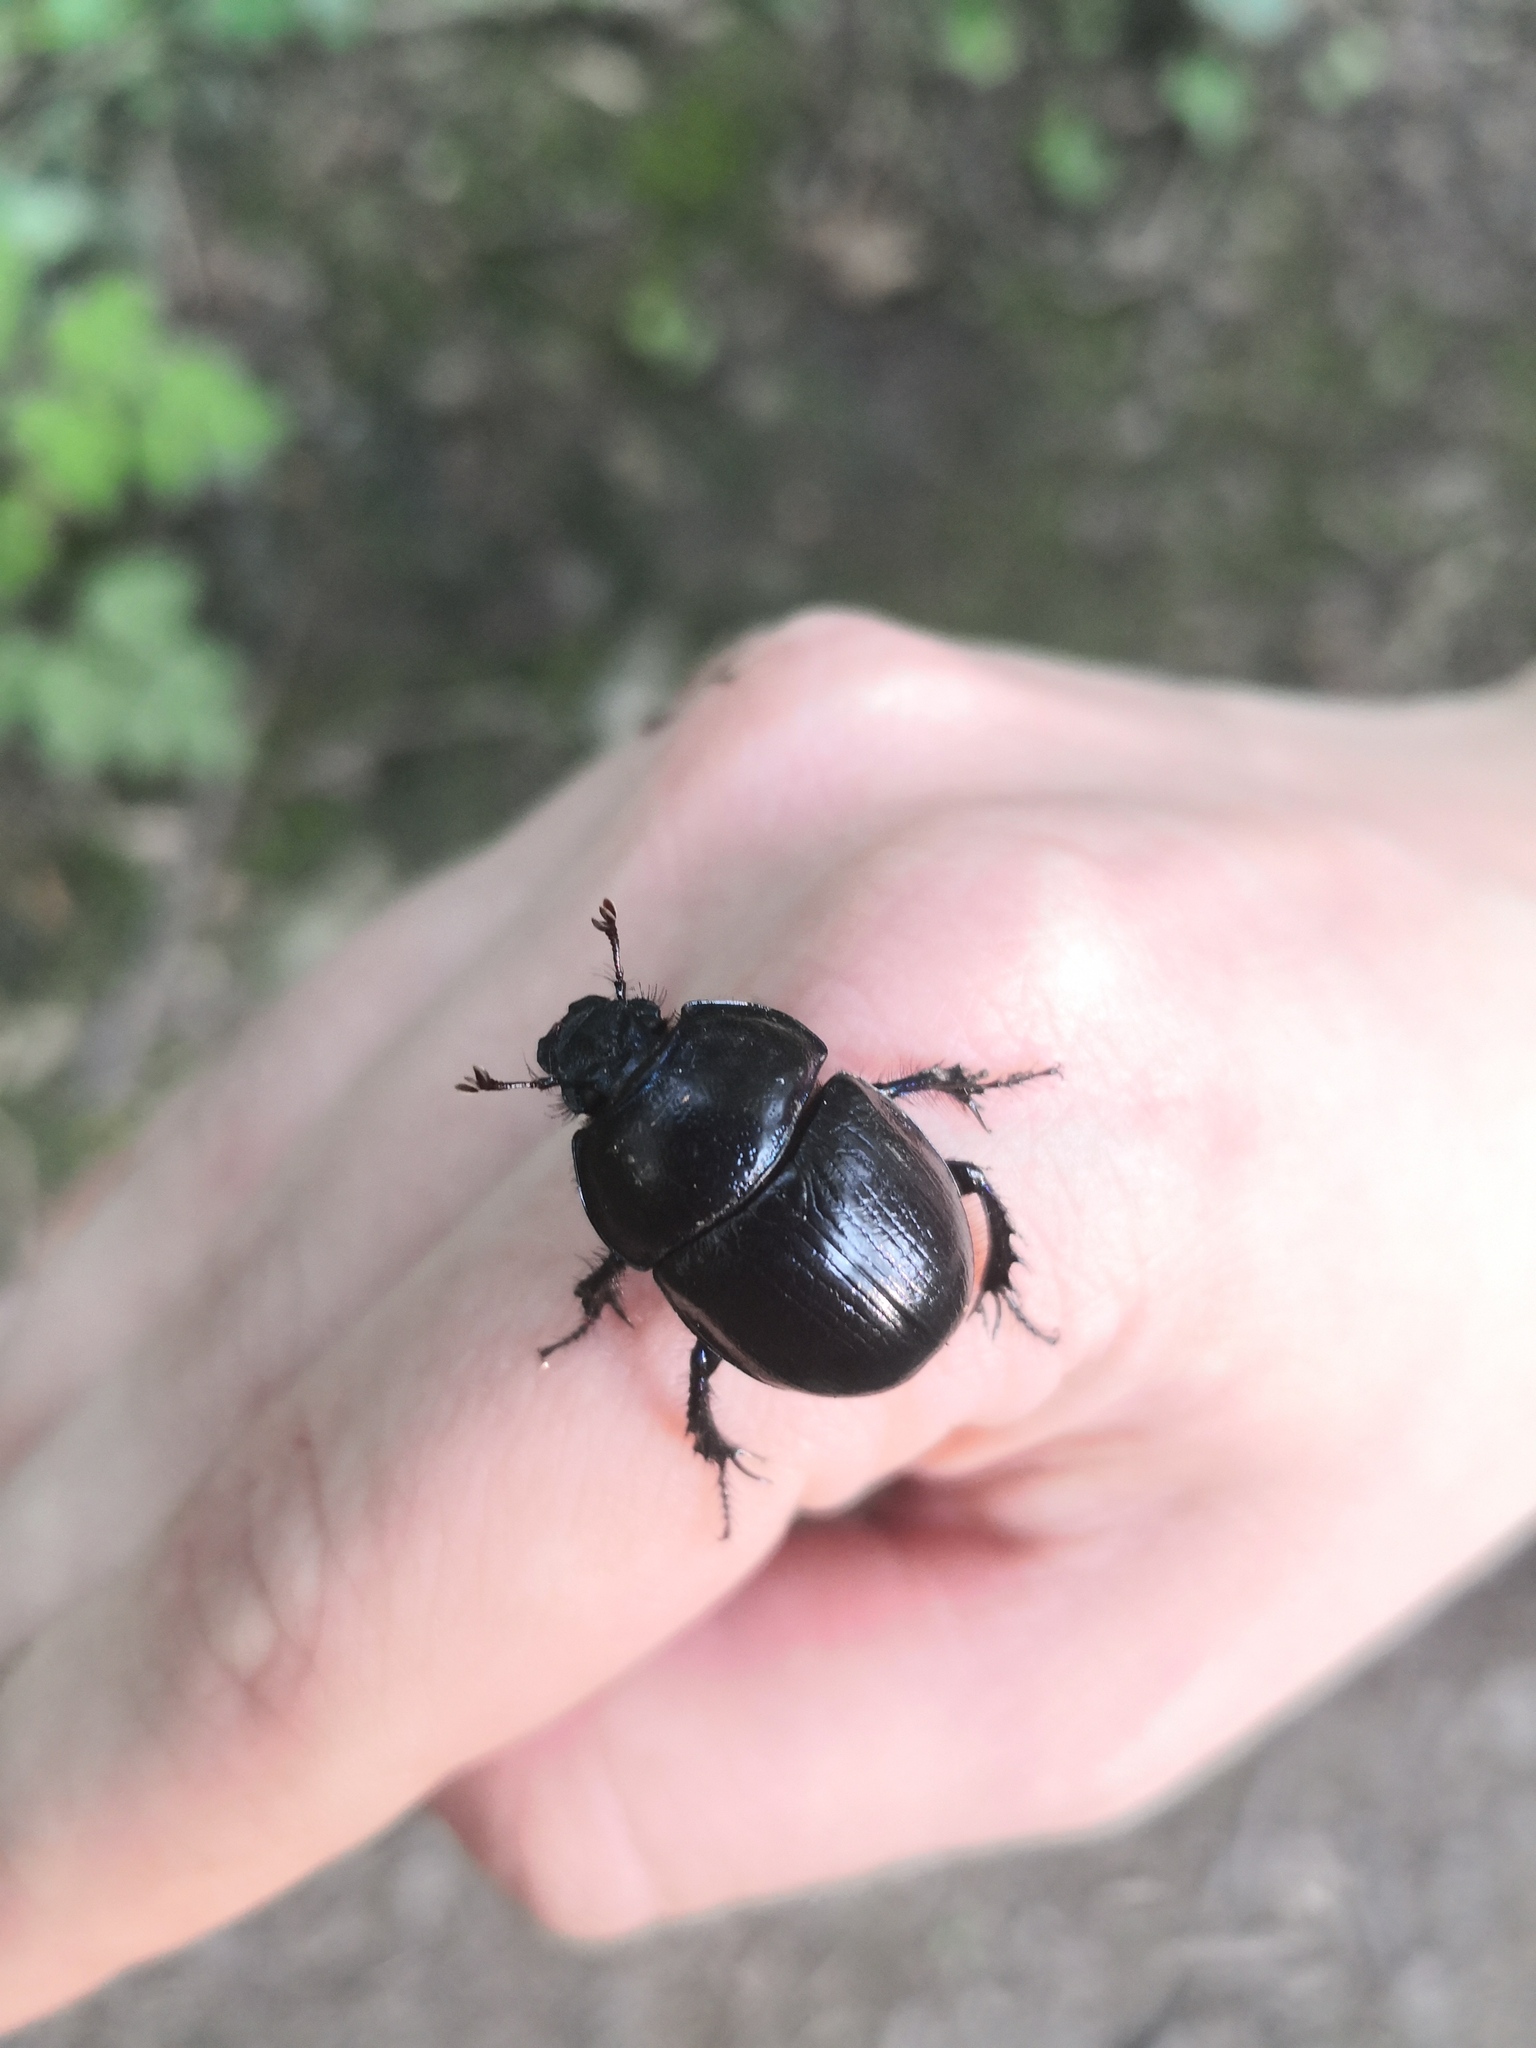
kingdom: Animalia
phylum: Arthropoda
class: Insecta
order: Coleoptera
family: Geotrupidae
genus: Anoplotrupes
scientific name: Anoplotrupes stercorosus
